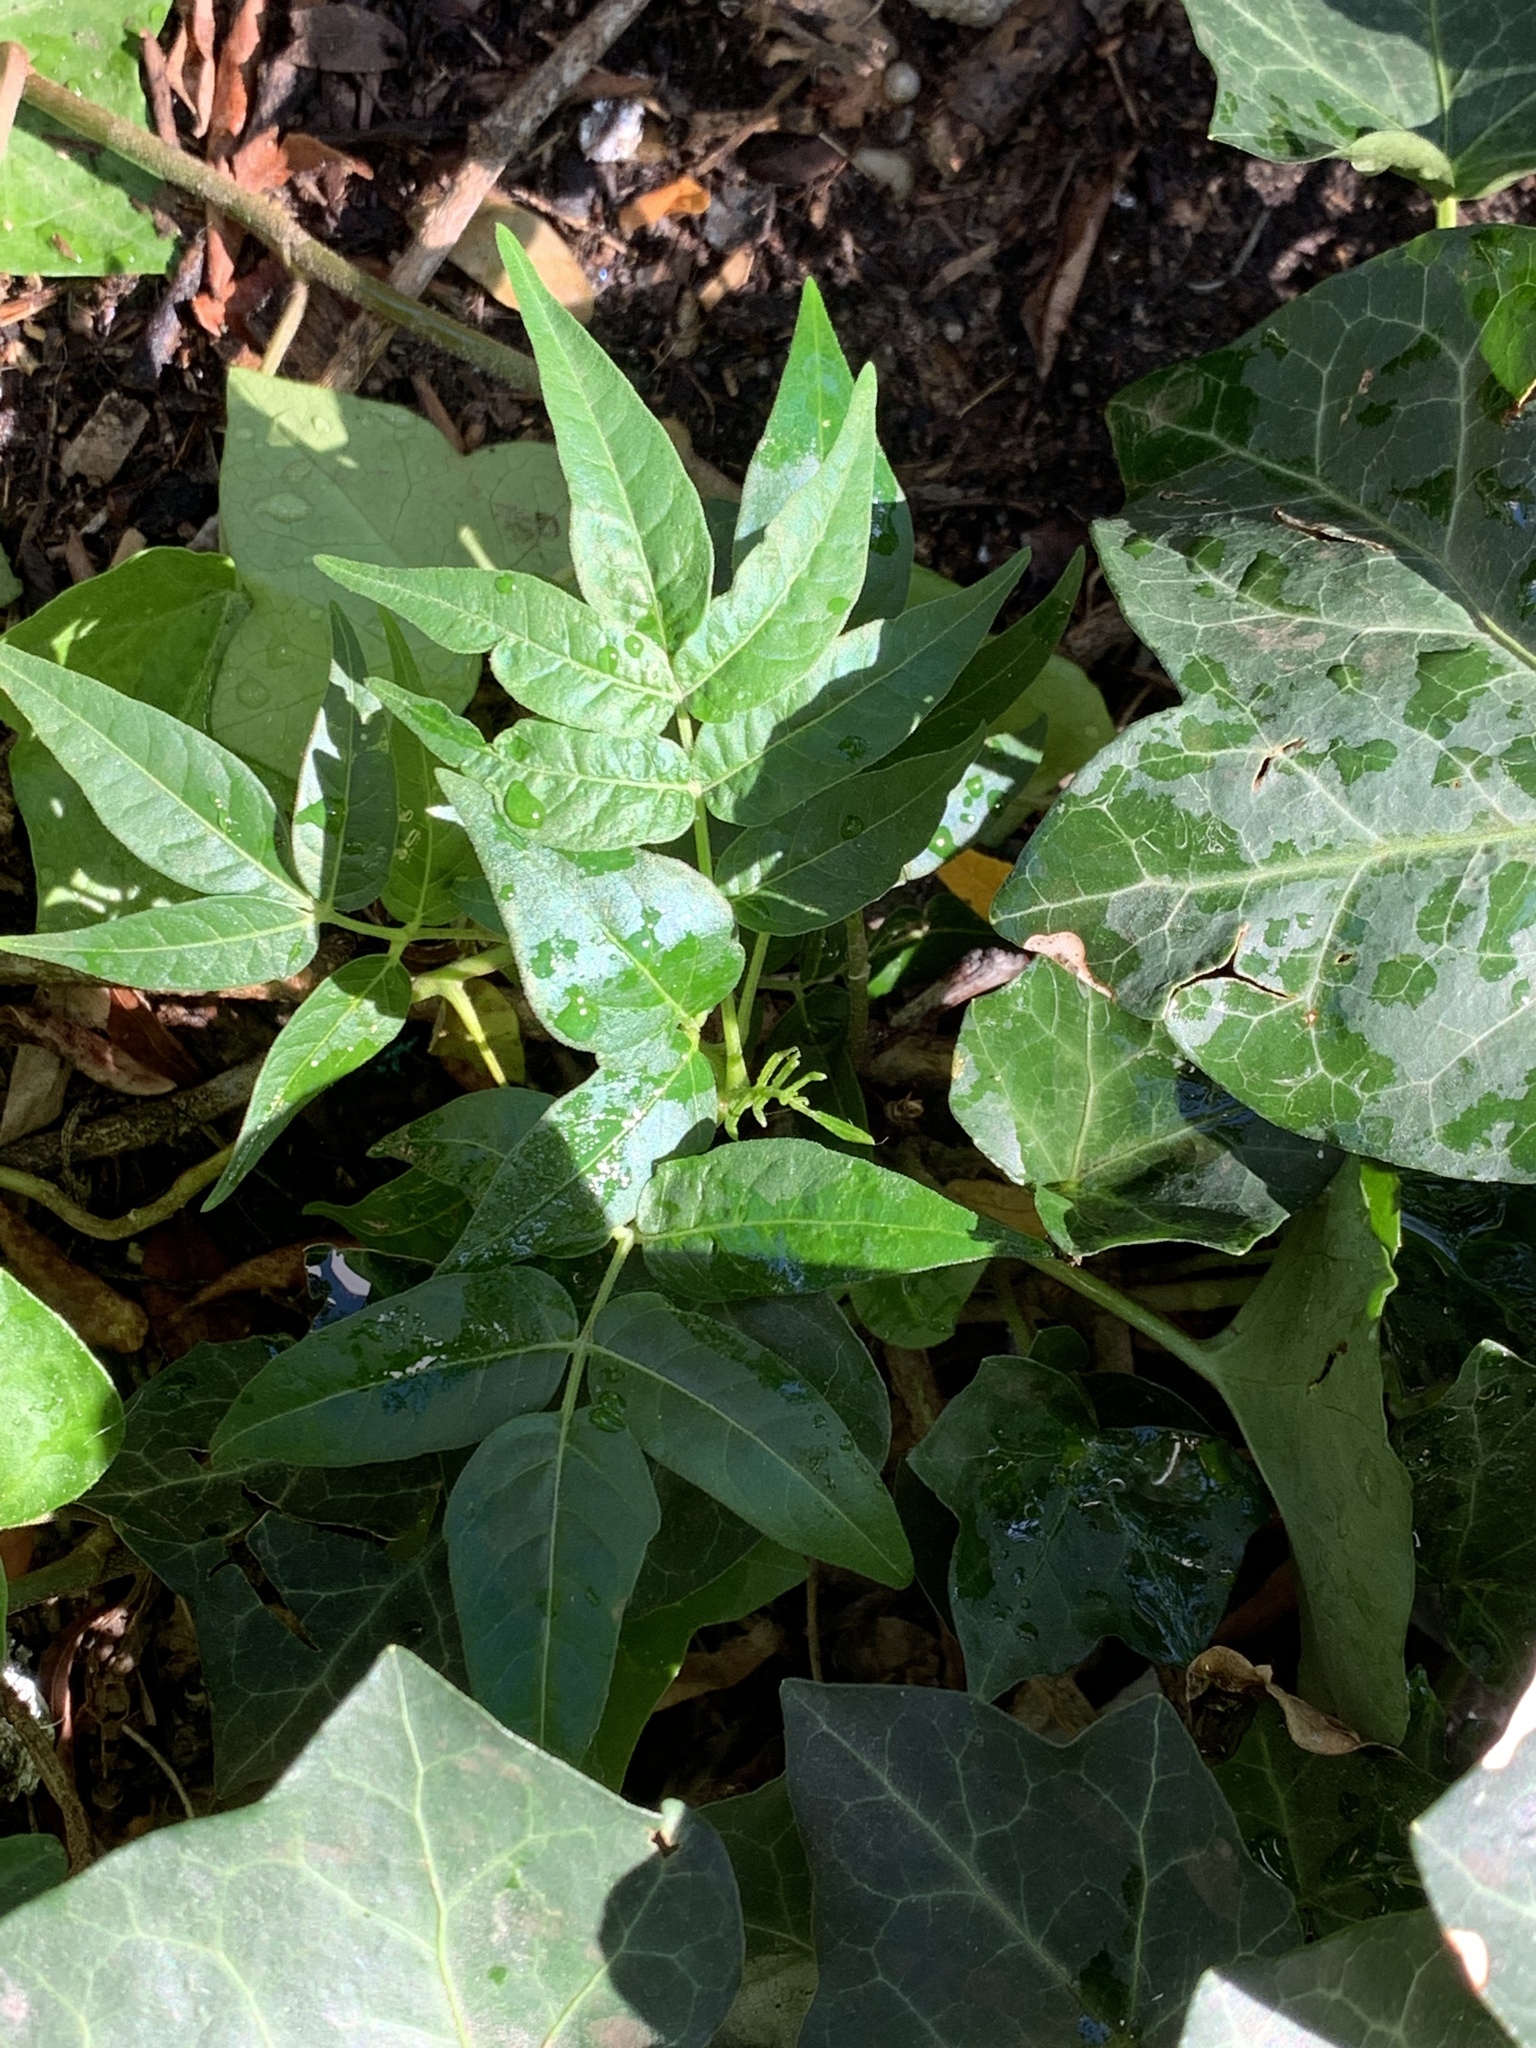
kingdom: Plantae
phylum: Tracheophyta
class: Magnoliopsida
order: Sapindales
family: Simaroubaceae
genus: Ailanthus
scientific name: Ailanthus altissima
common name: Tree-of-heaven
